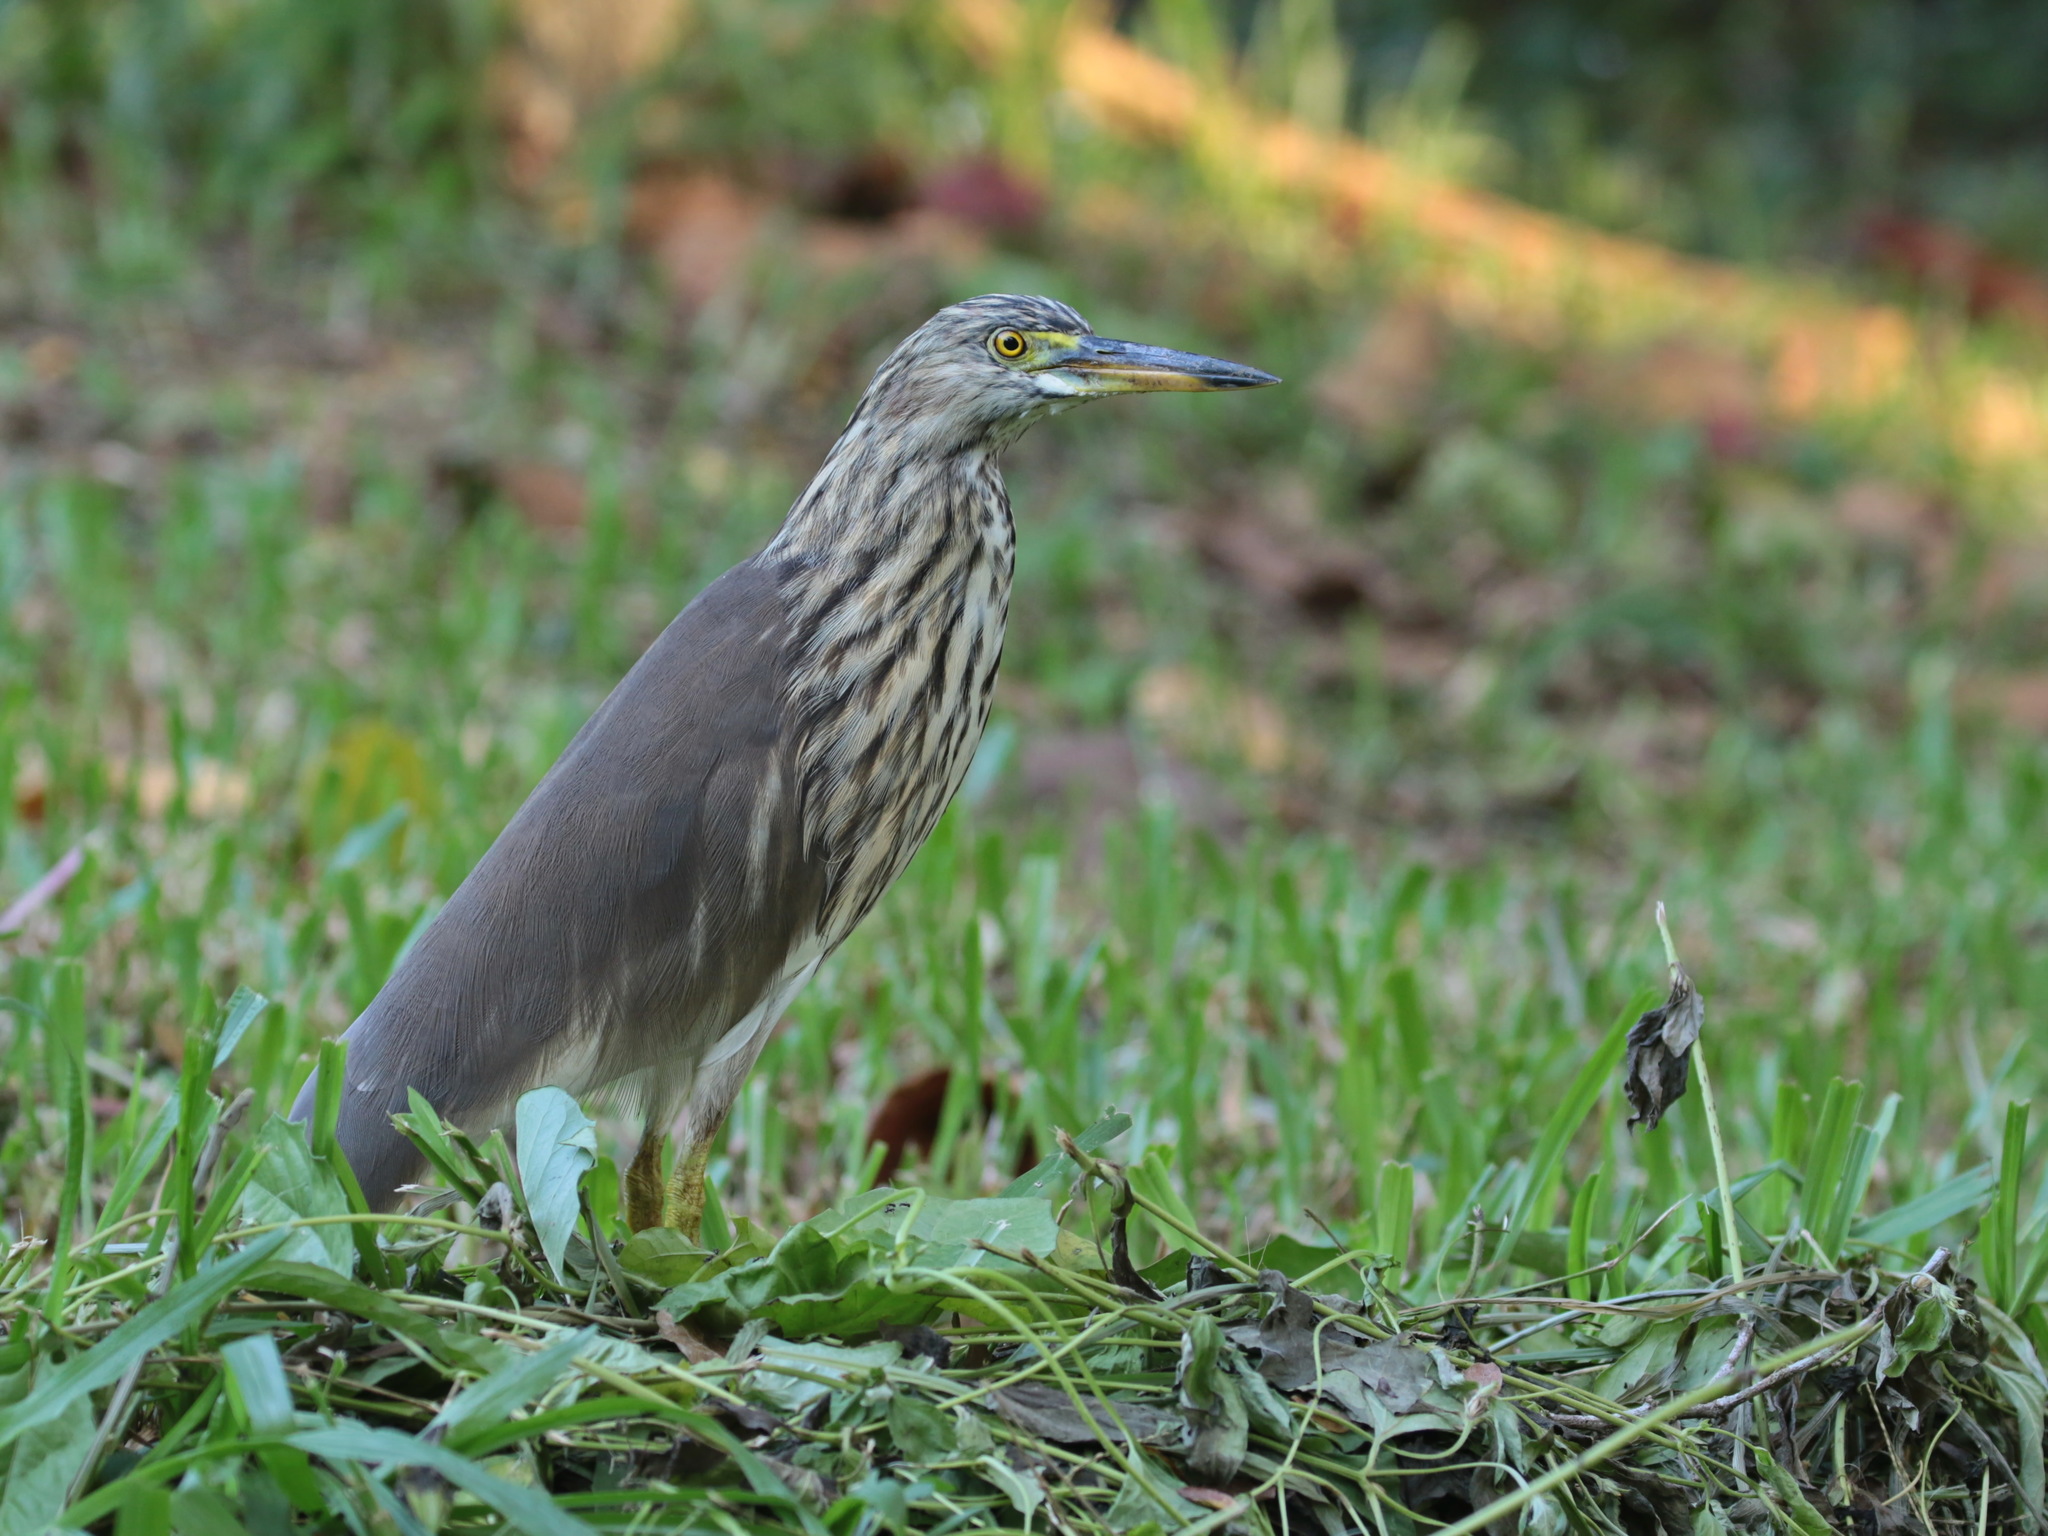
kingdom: Animalia
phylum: Chordata
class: Aves
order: Pelecaniformes
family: Ardeidae
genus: Ardeola
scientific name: Ardeola bacchus
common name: Chinese pond heron
